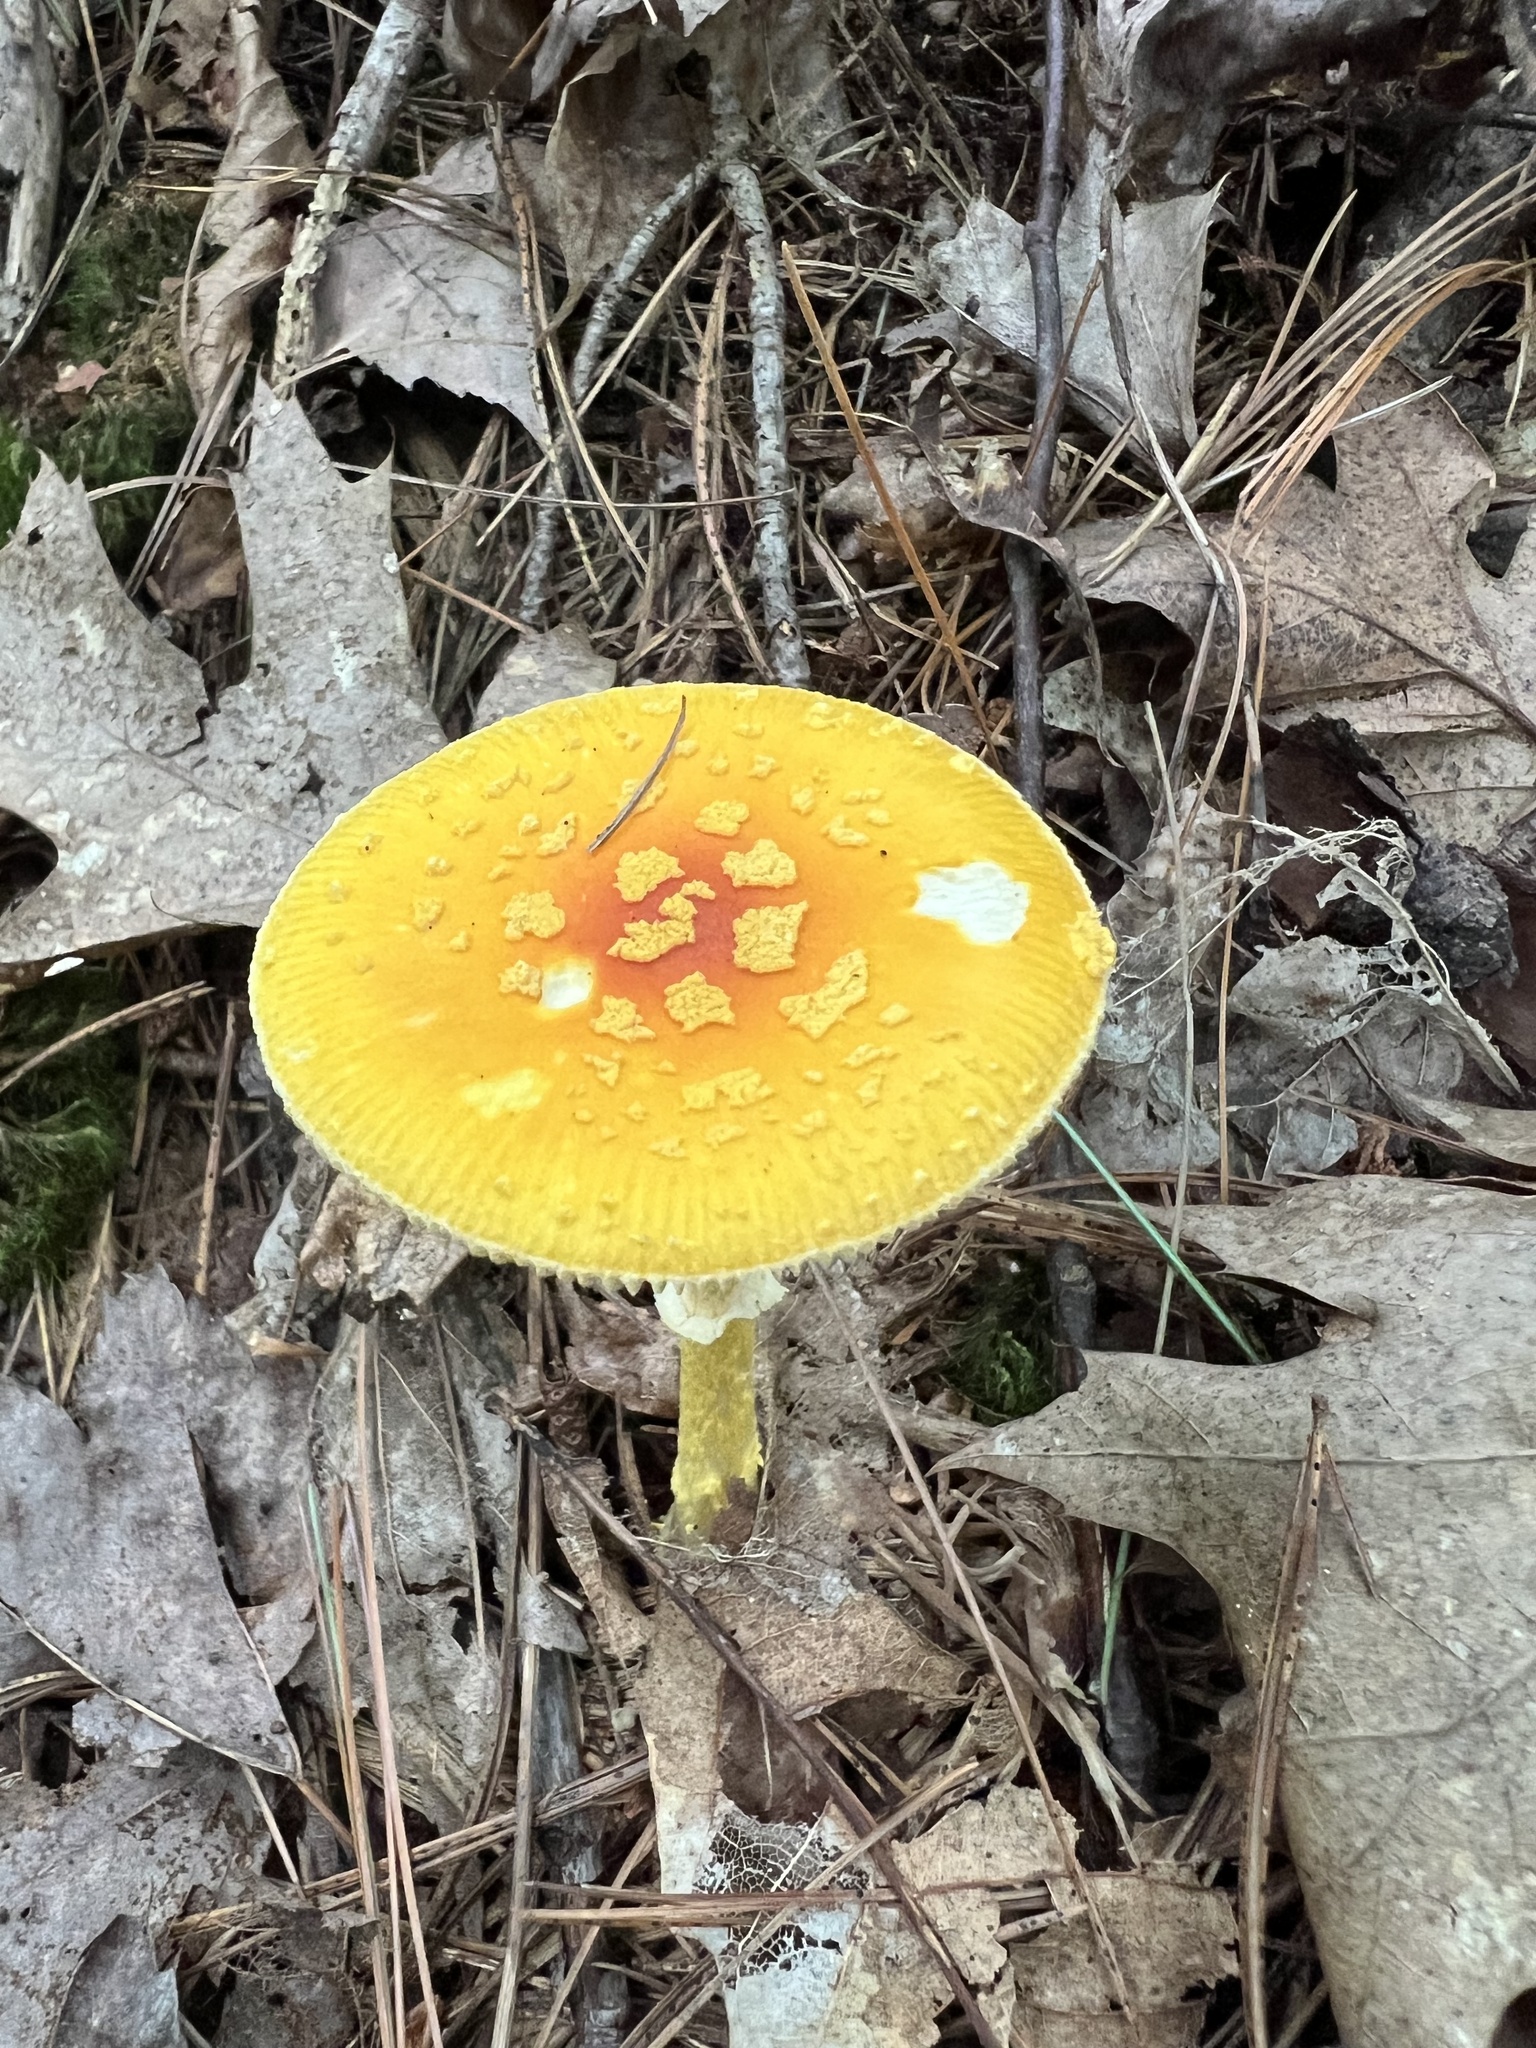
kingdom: Fungi
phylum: Basidiomycota
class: Agaricomycetes
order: Agaricales
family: Amanitaceae
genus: Amanita
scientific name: Amanita frostiana
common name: Frost's amanita
